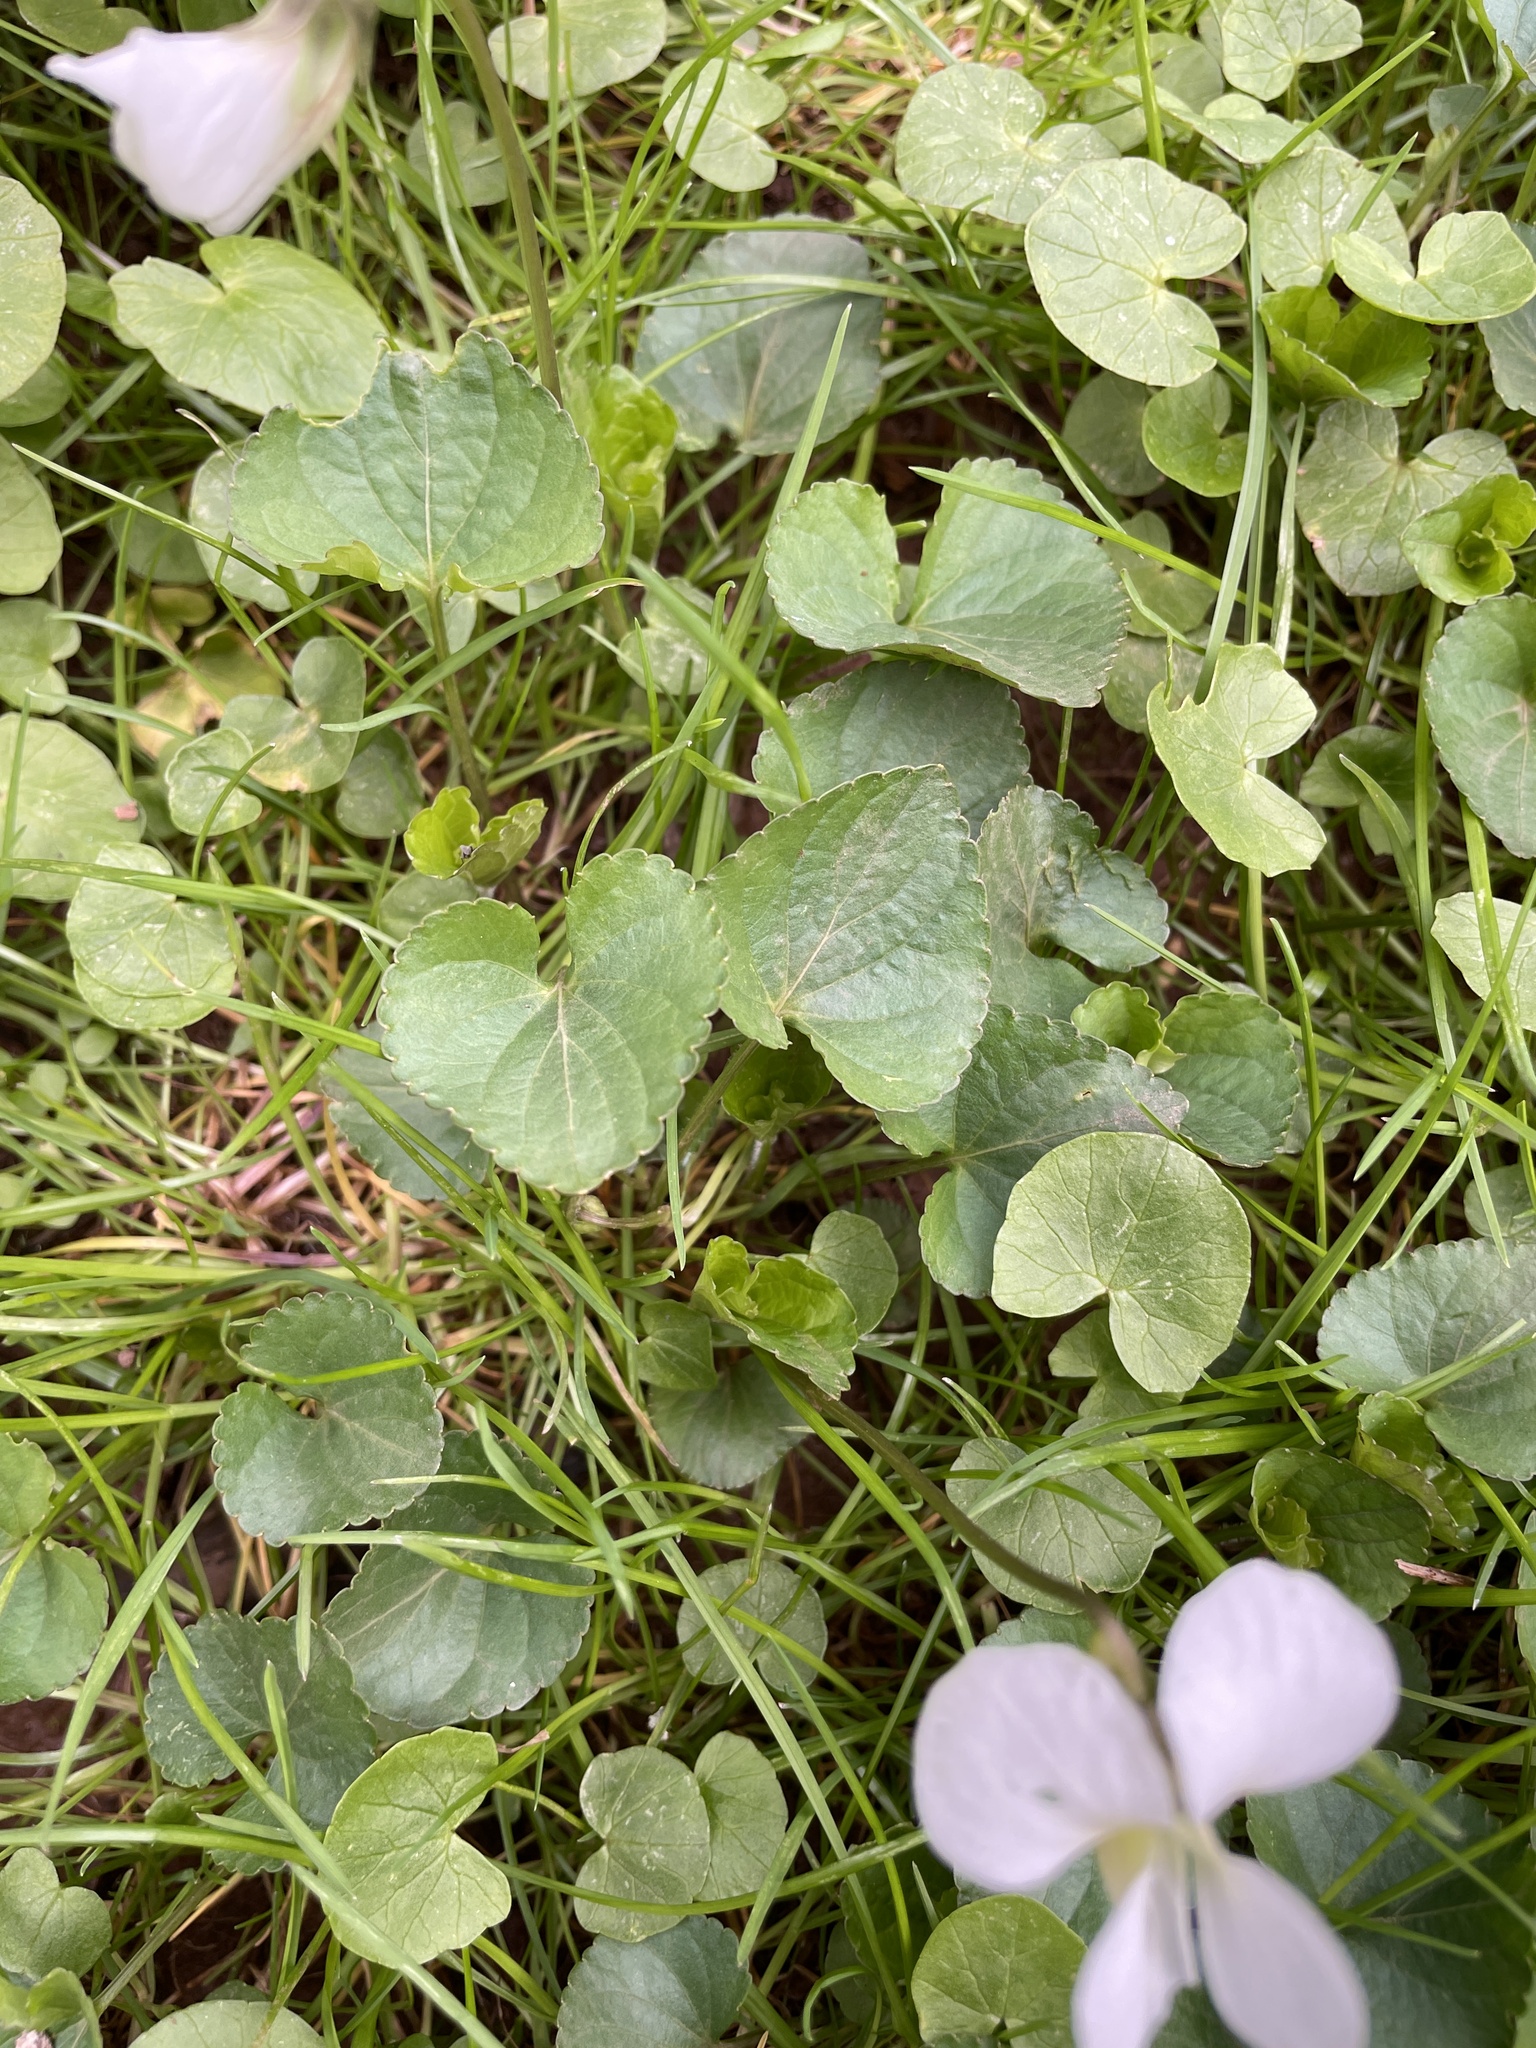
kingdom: Plantae
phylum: Tracheophyta
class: Magnoliopsida
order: Malpighiales
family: Violaceae
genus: Viola
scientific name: Viola sororia
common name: Dooryard violet
